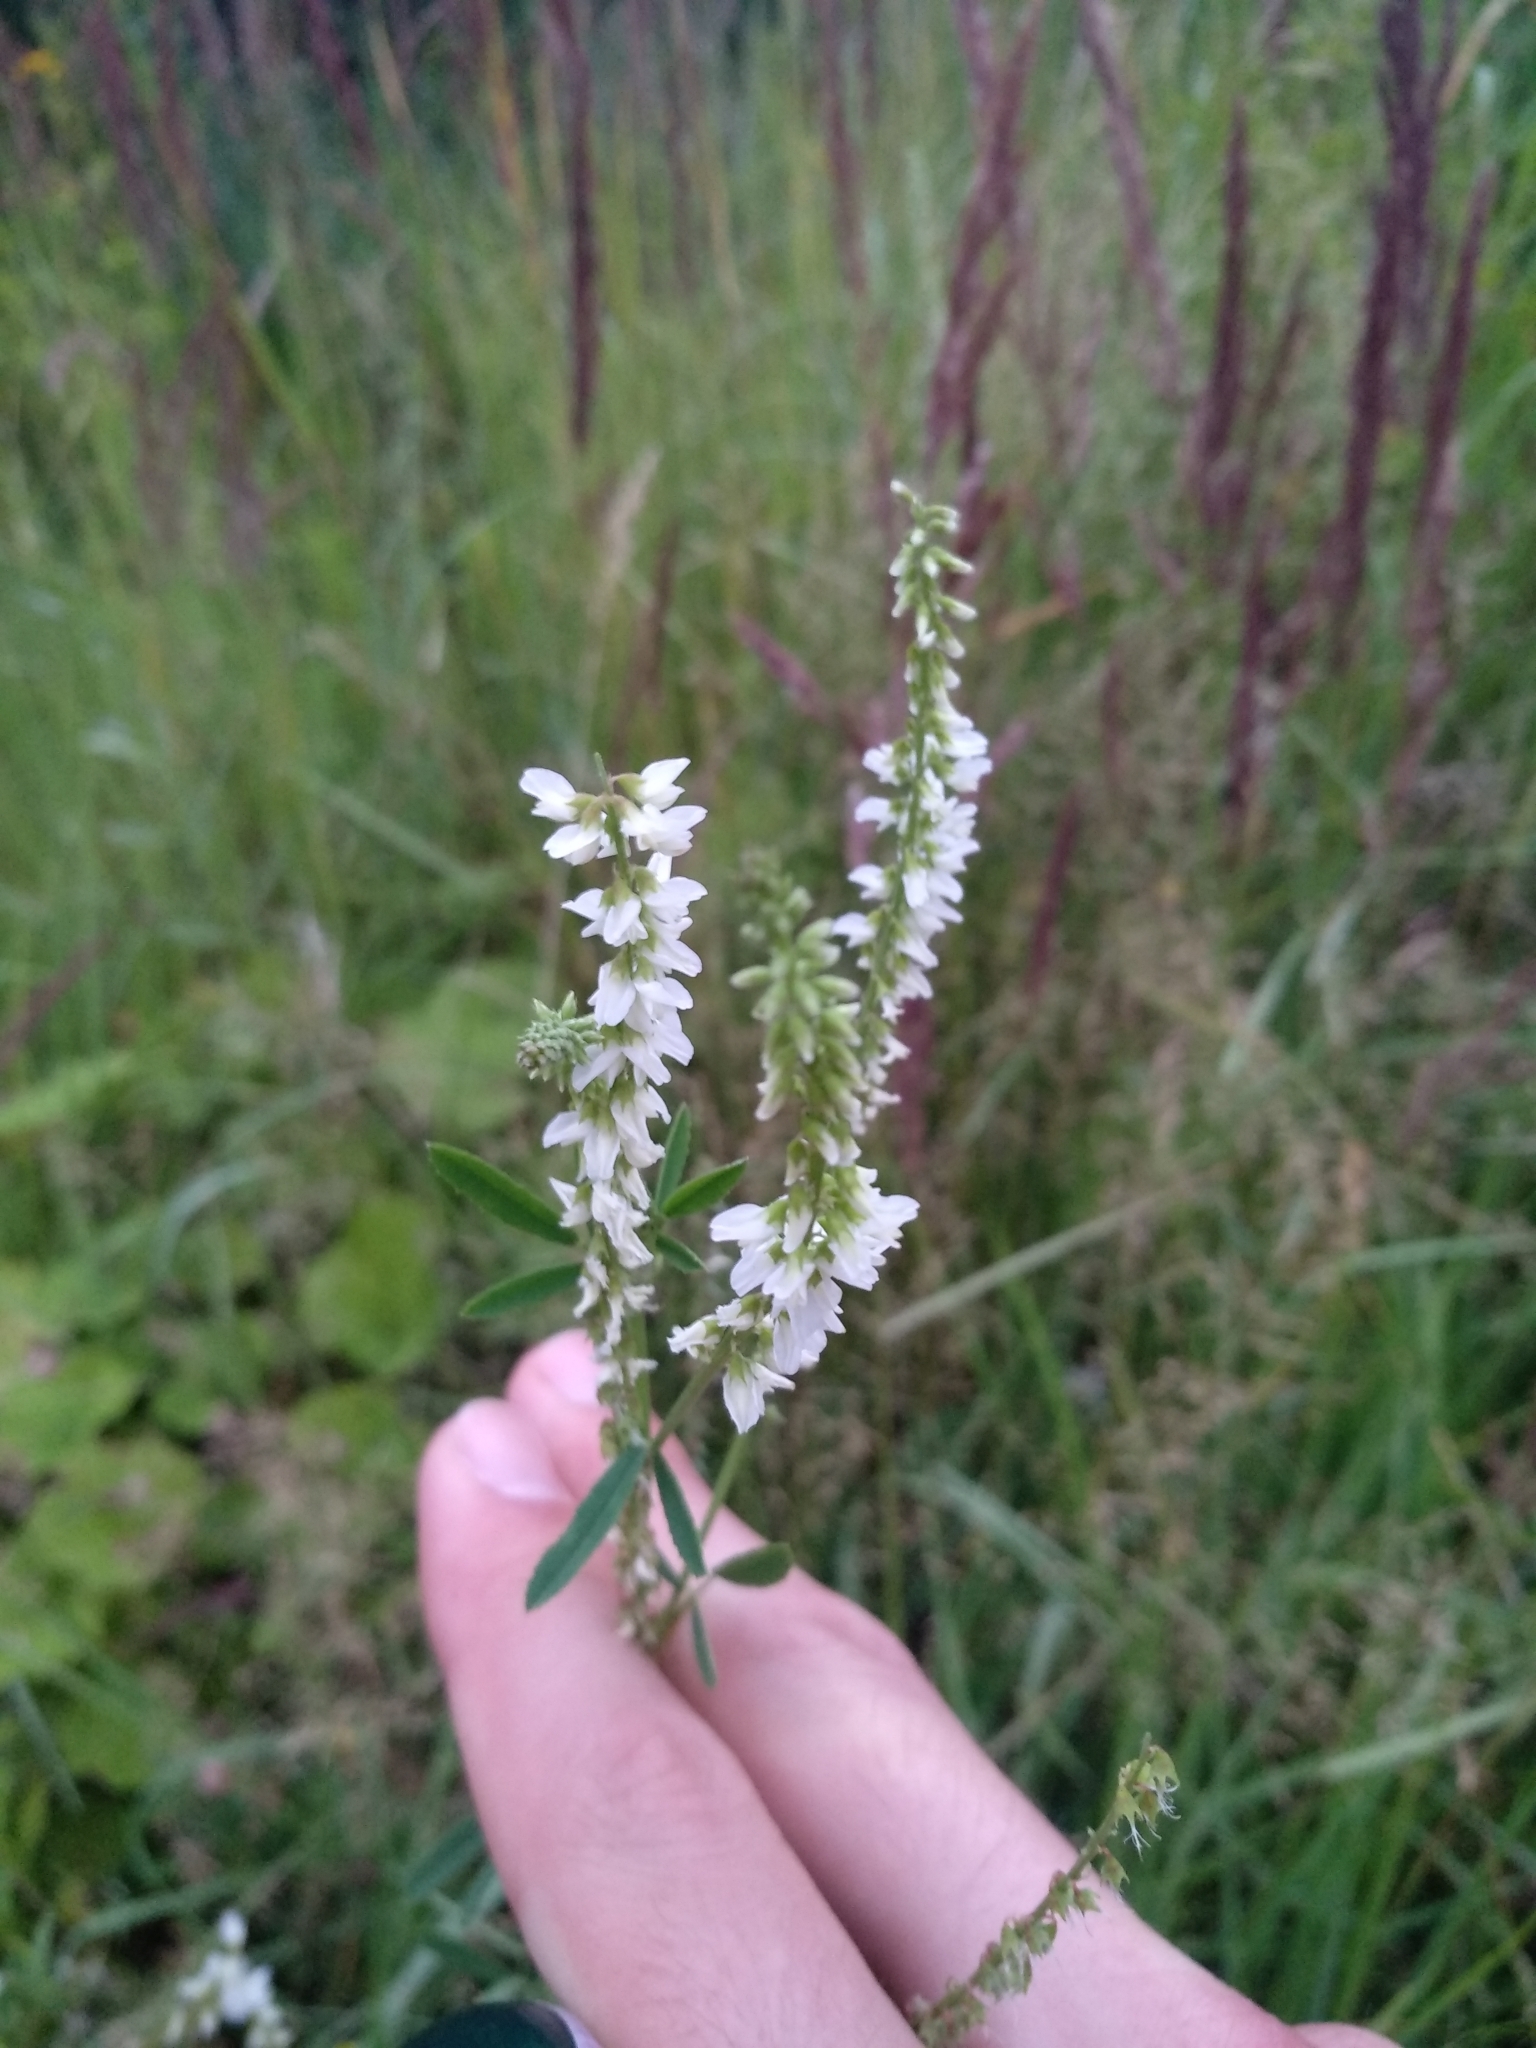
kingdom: Plantae
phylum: Tracheophyta
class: Magnoliopsida
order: Fabales
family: Fabaceae
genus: Melilotus
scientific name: Melilotus albus
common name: White melilot
